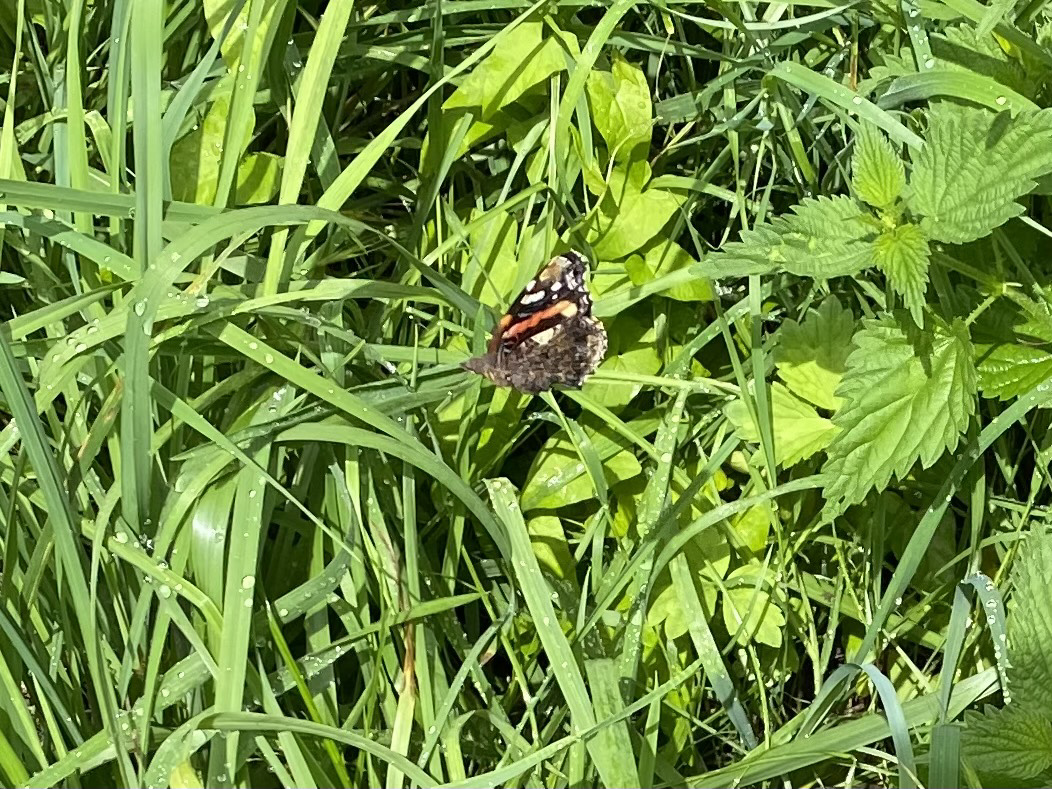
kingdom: Animalia
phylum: Arthropoda
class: Insecta
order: Lepidoptera
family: Nymphalidae
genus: Vanessa
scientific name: Vanessa atalanta
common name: Red admiral
